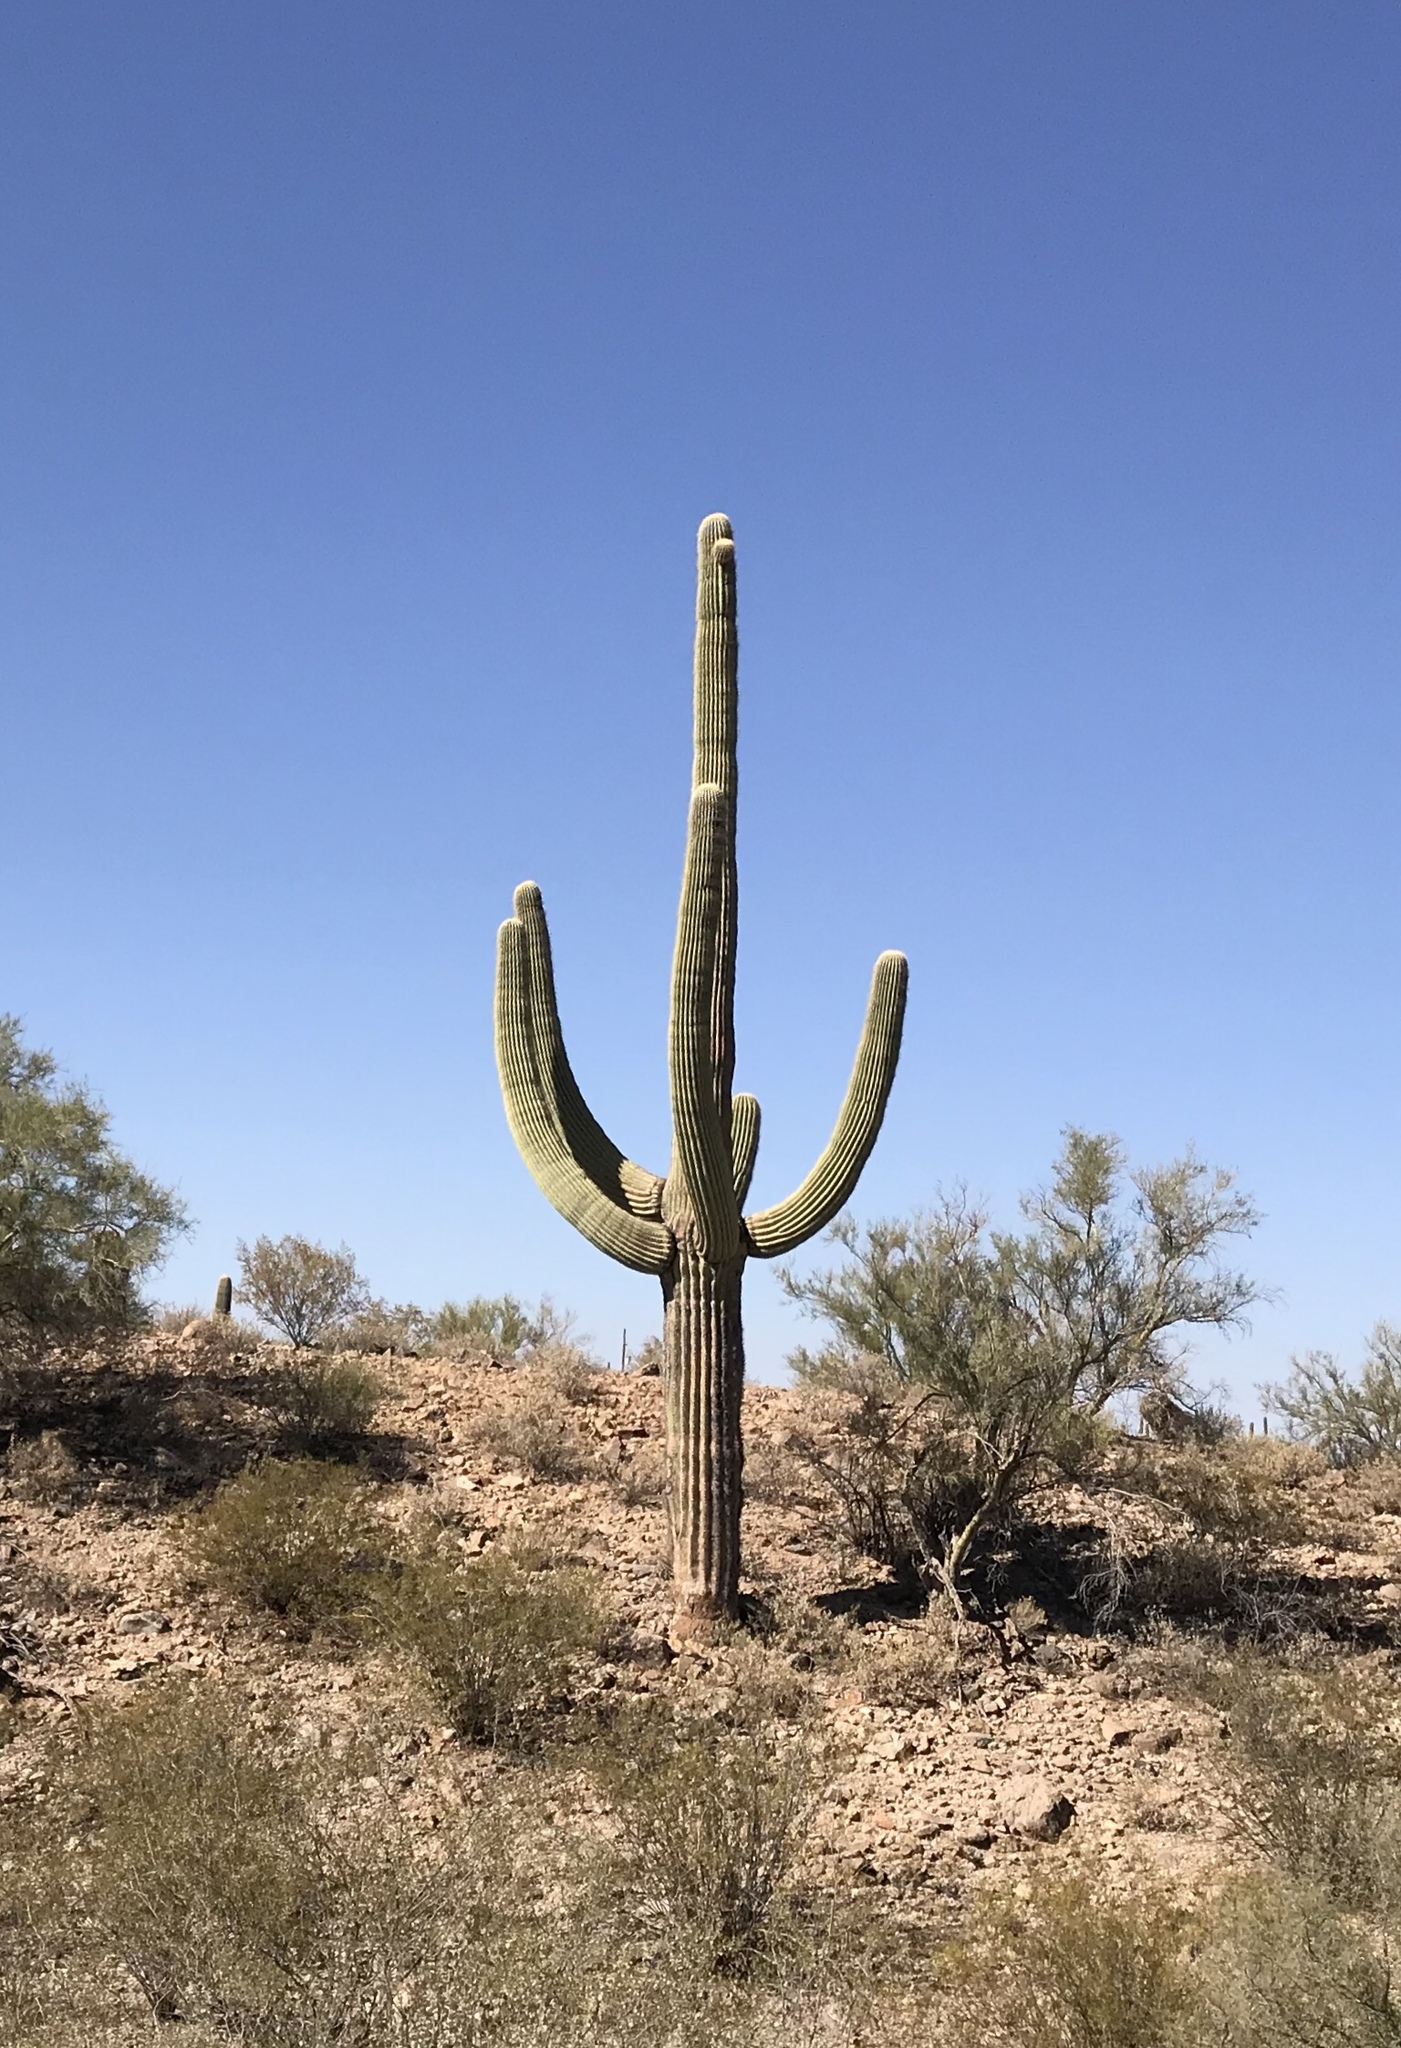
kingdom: Plantae
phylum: Tracheophyta
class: Magnoliopsida
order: Caryophyllales
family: Cactaceae
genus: Carnegiea
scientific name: Carnegiea gigantea
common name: Saguaro
